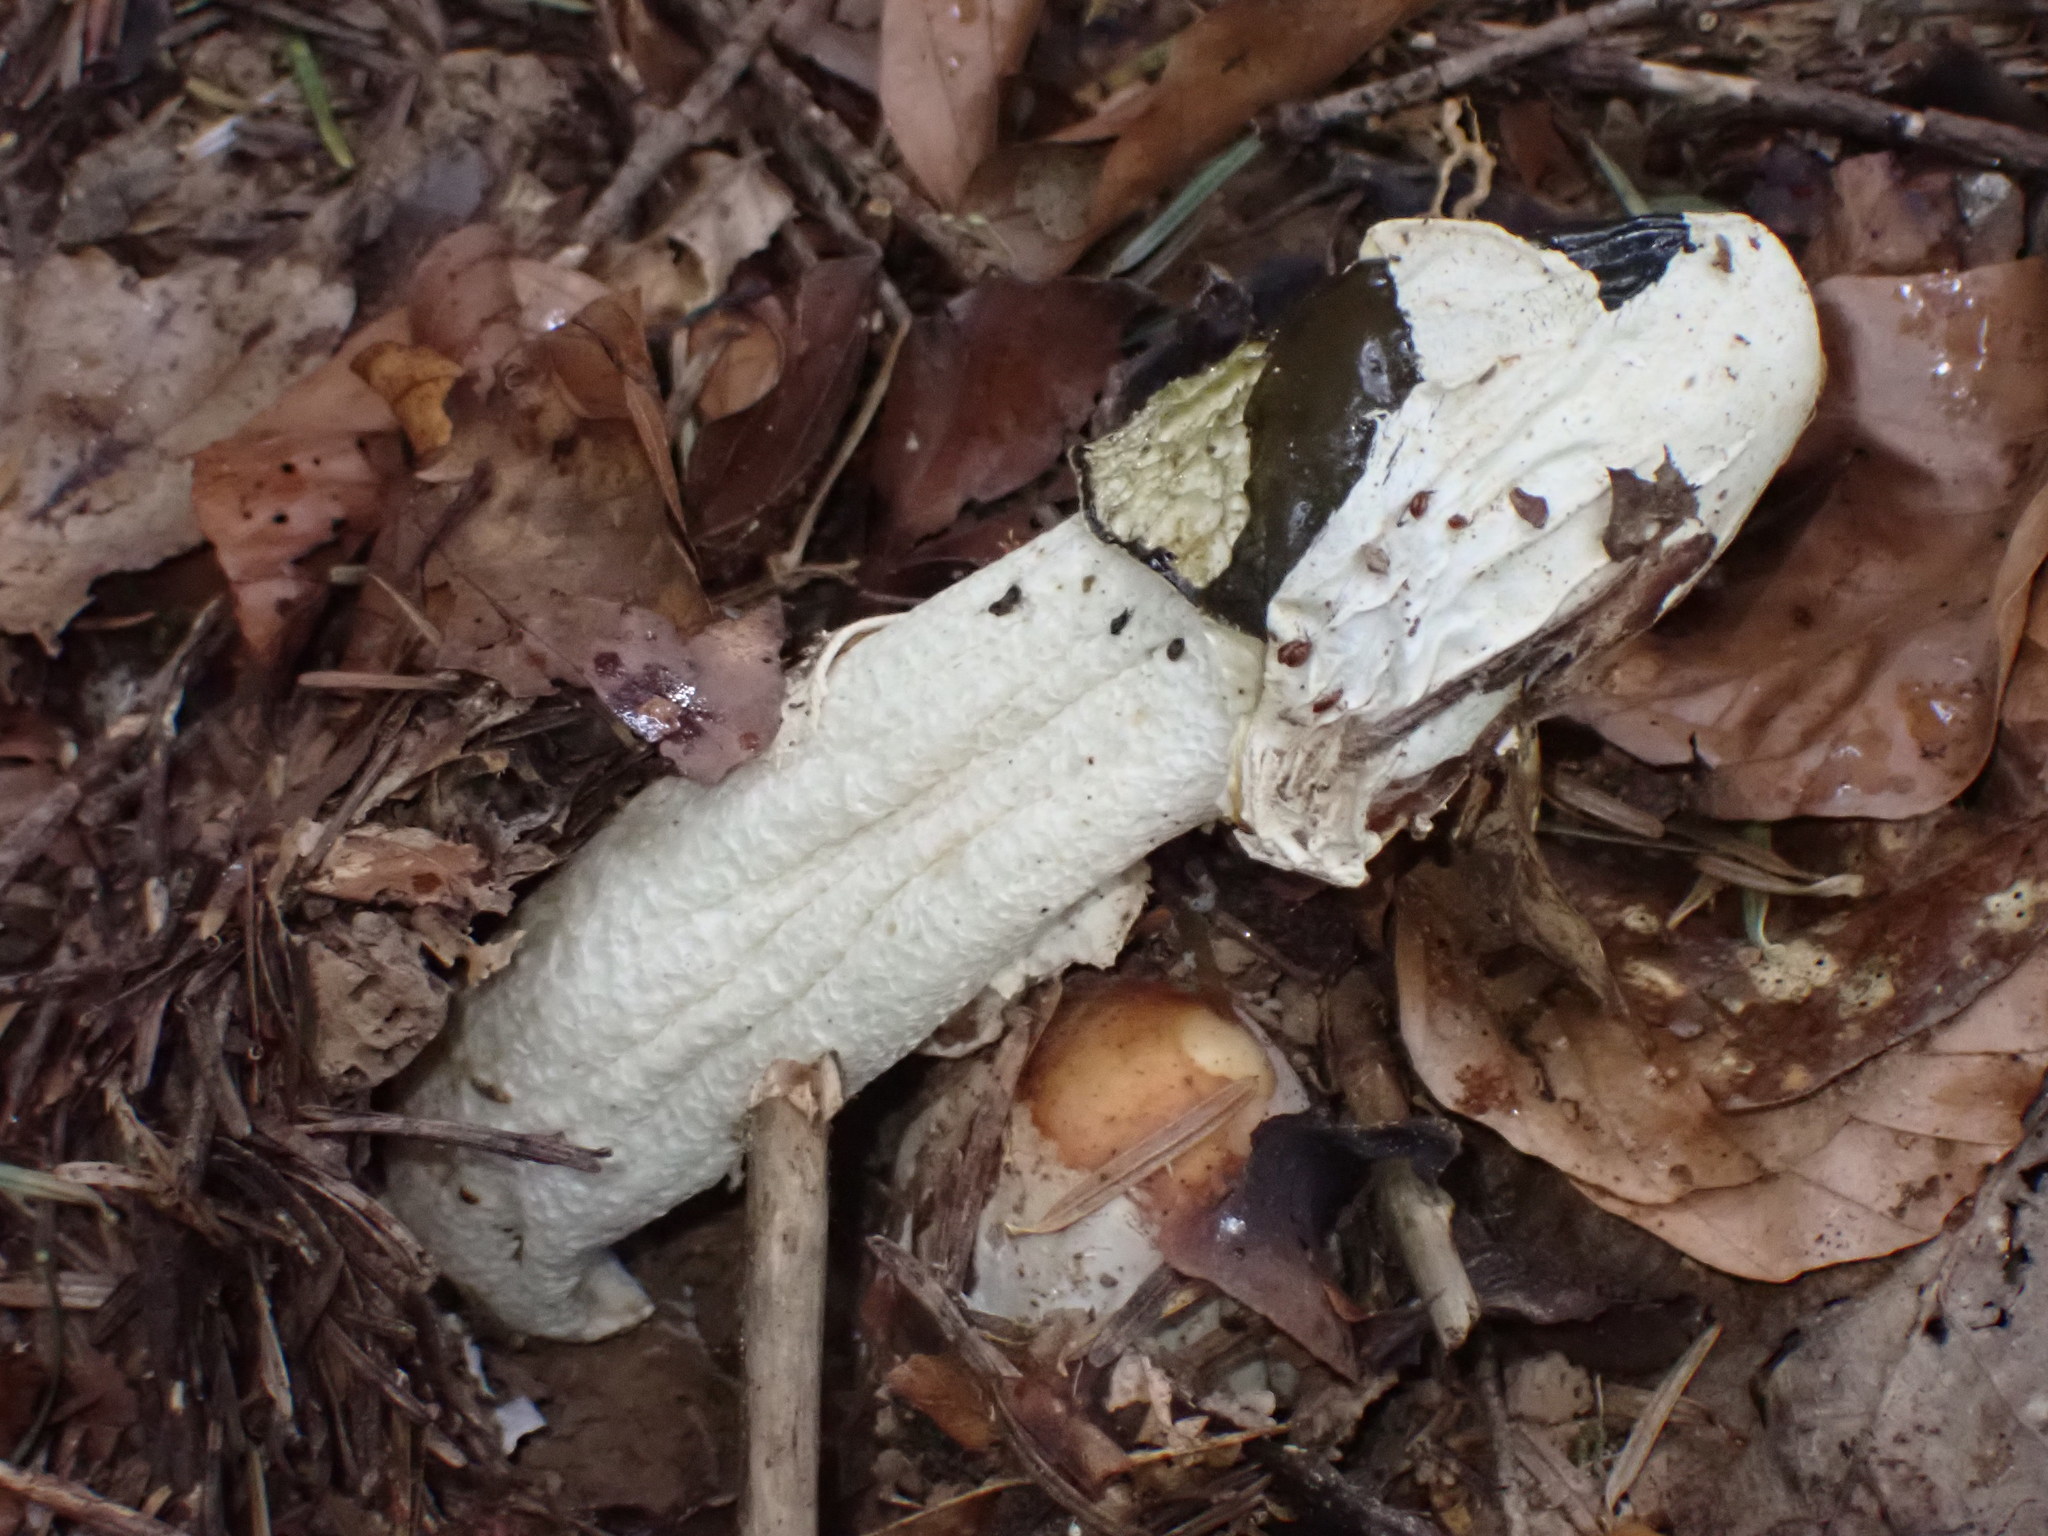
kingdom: Fungi
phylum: Basidiomycota
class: Agaricomycetes
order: Phallales
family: Phallaceae
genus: Phallus
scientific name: Phallus impudicus
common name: Common stinkhorn
